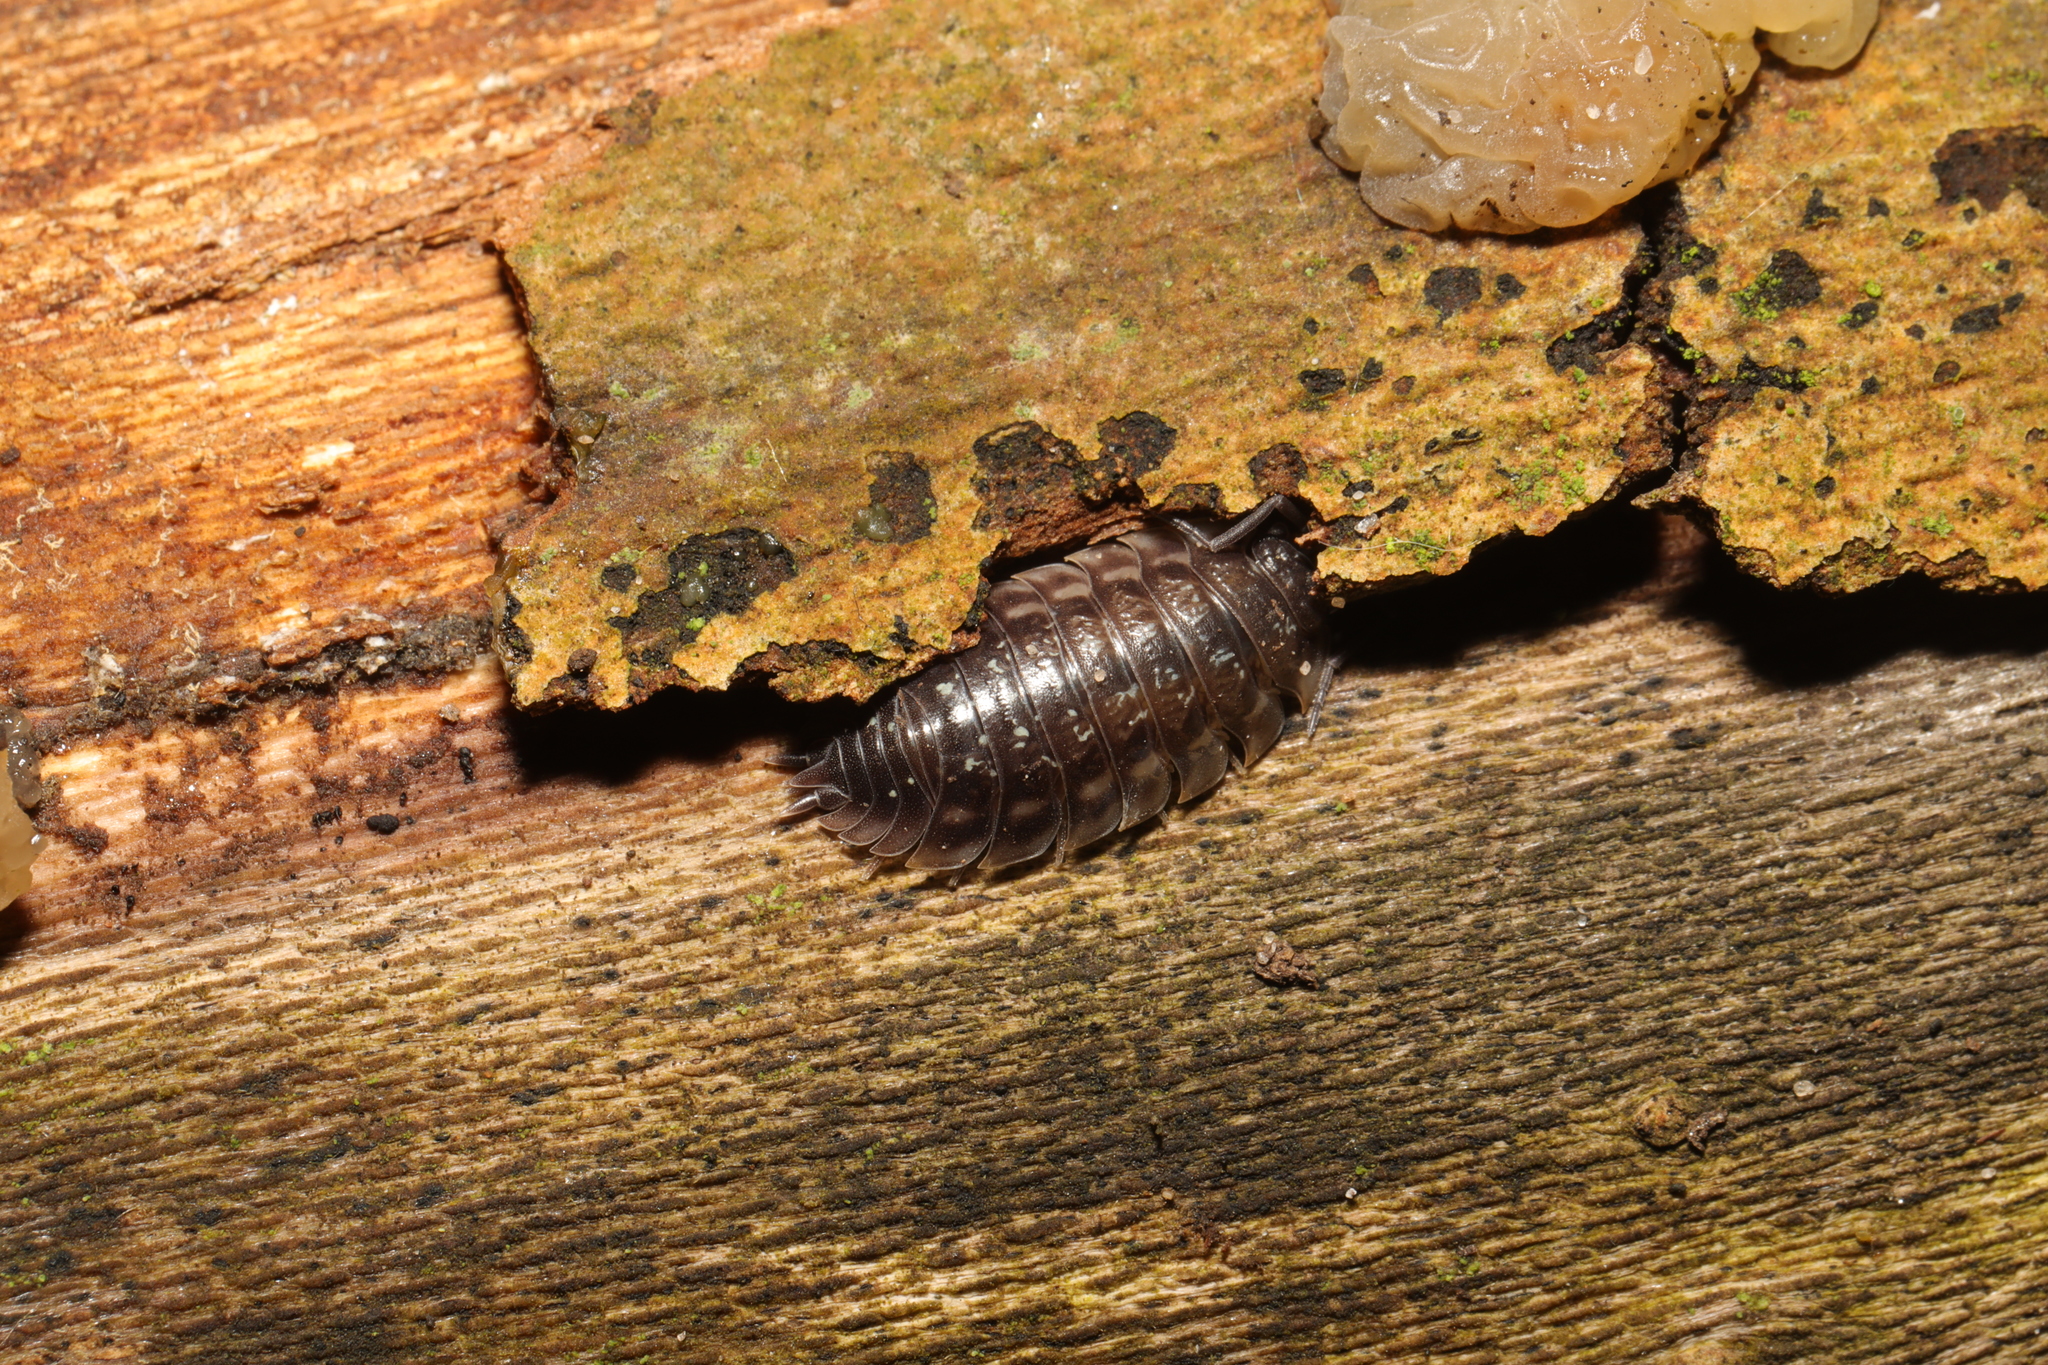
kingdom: Animalia
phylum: Arthropoda
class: Malacostraca
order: Isopoda
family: Oniscidae
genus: Oniscus
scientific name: Oniscus asellus
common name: Common shiny woodlouse
